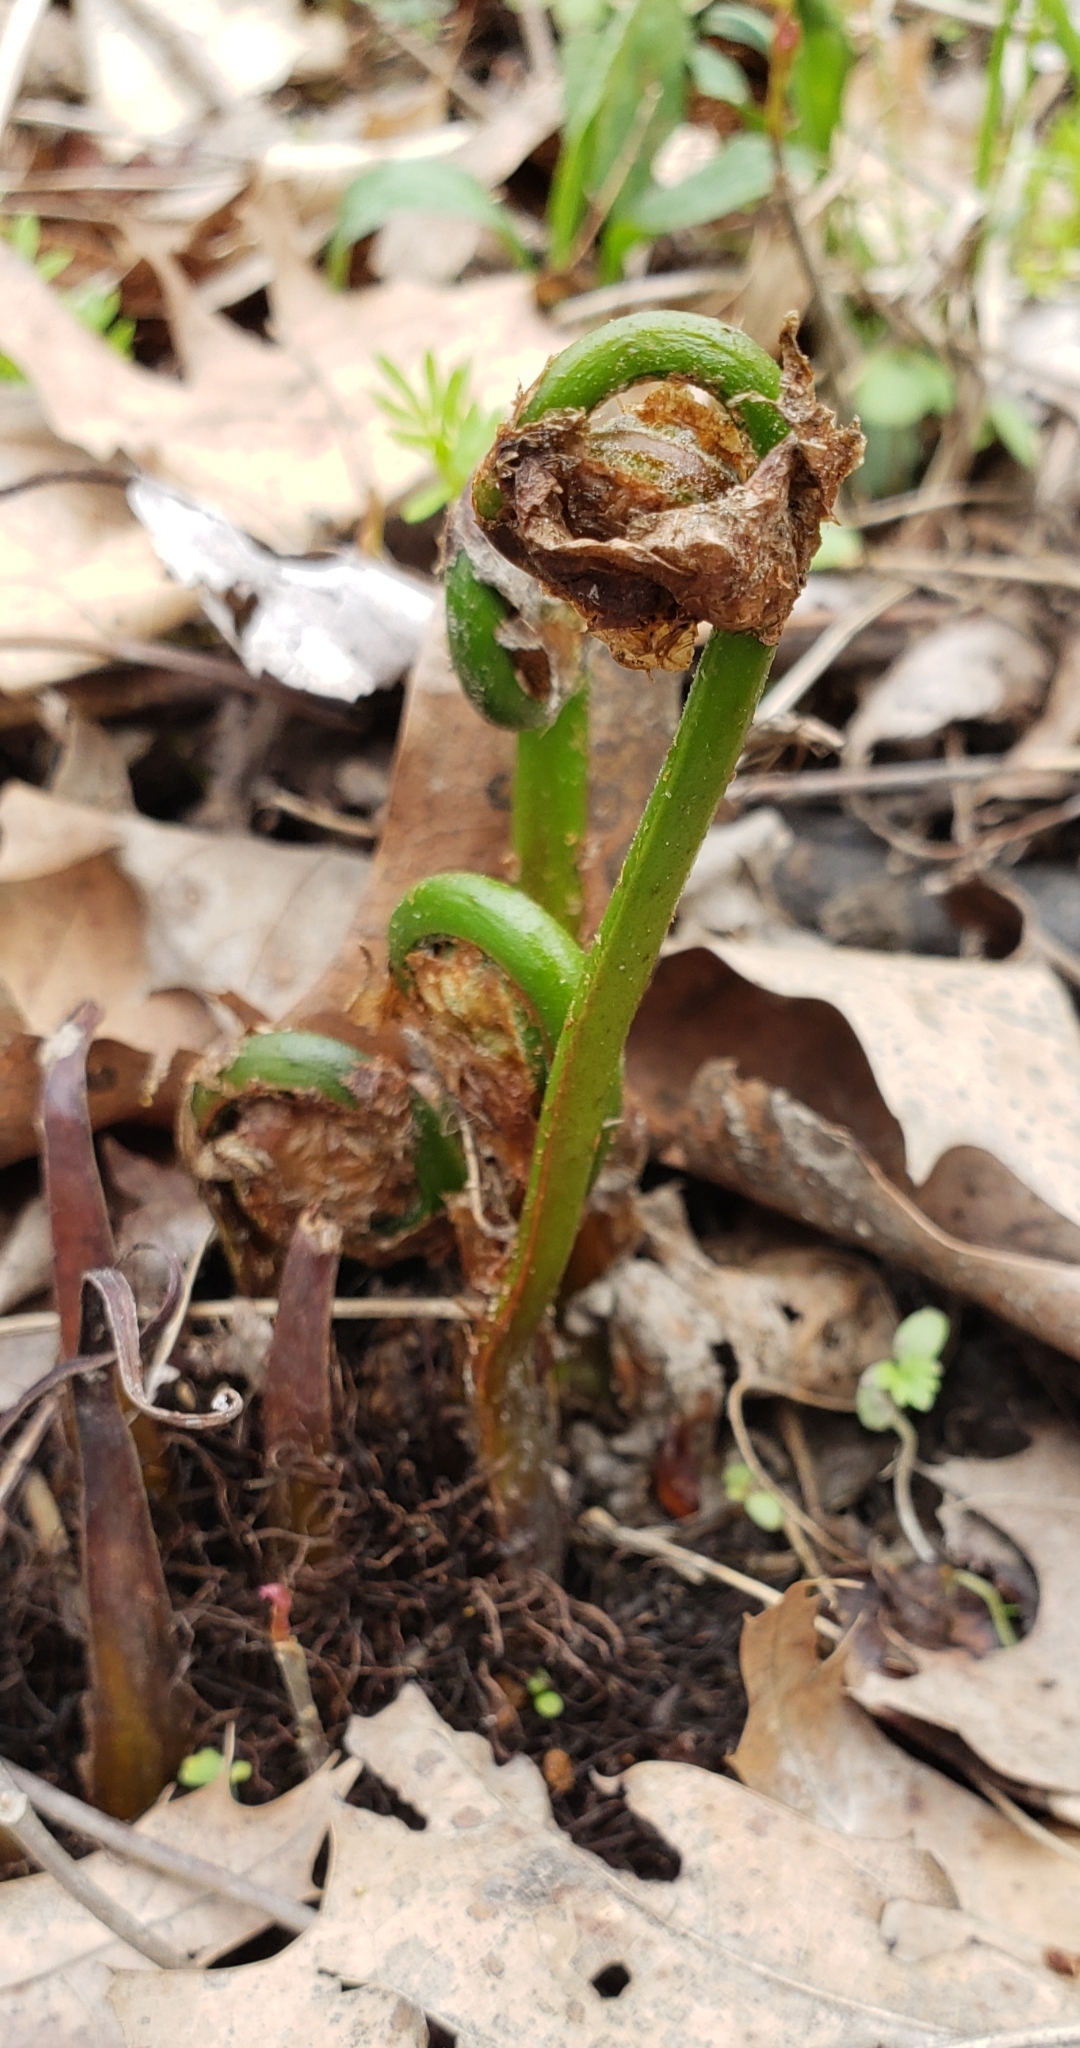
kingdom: Plantae
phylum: Tracheophyta
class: Polypodiopsida
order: Polypodiales
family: Onocleaceae
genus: Onoclea
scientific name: Onoclea sensibilis
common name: Sensitive fern
